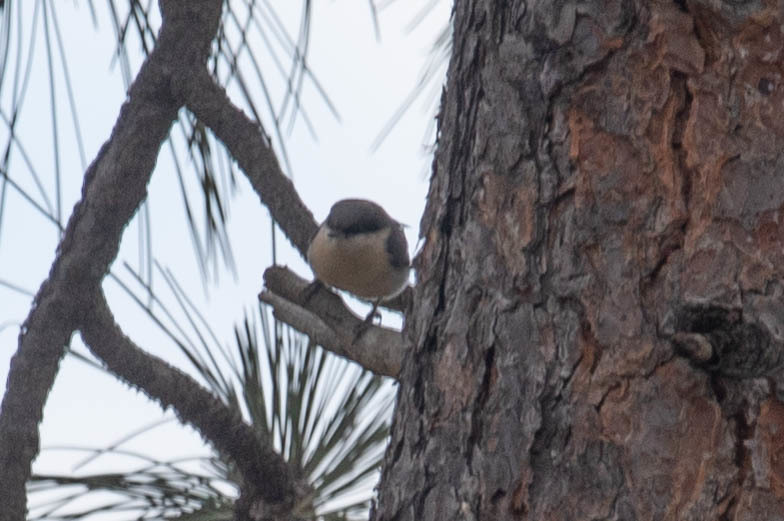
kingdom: Animalia
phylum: Chordata
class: Aves
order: Passeriformes
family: Sittidae
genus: Sitta
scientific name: Sitta pygmaea
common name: Pygmy nuthatch
